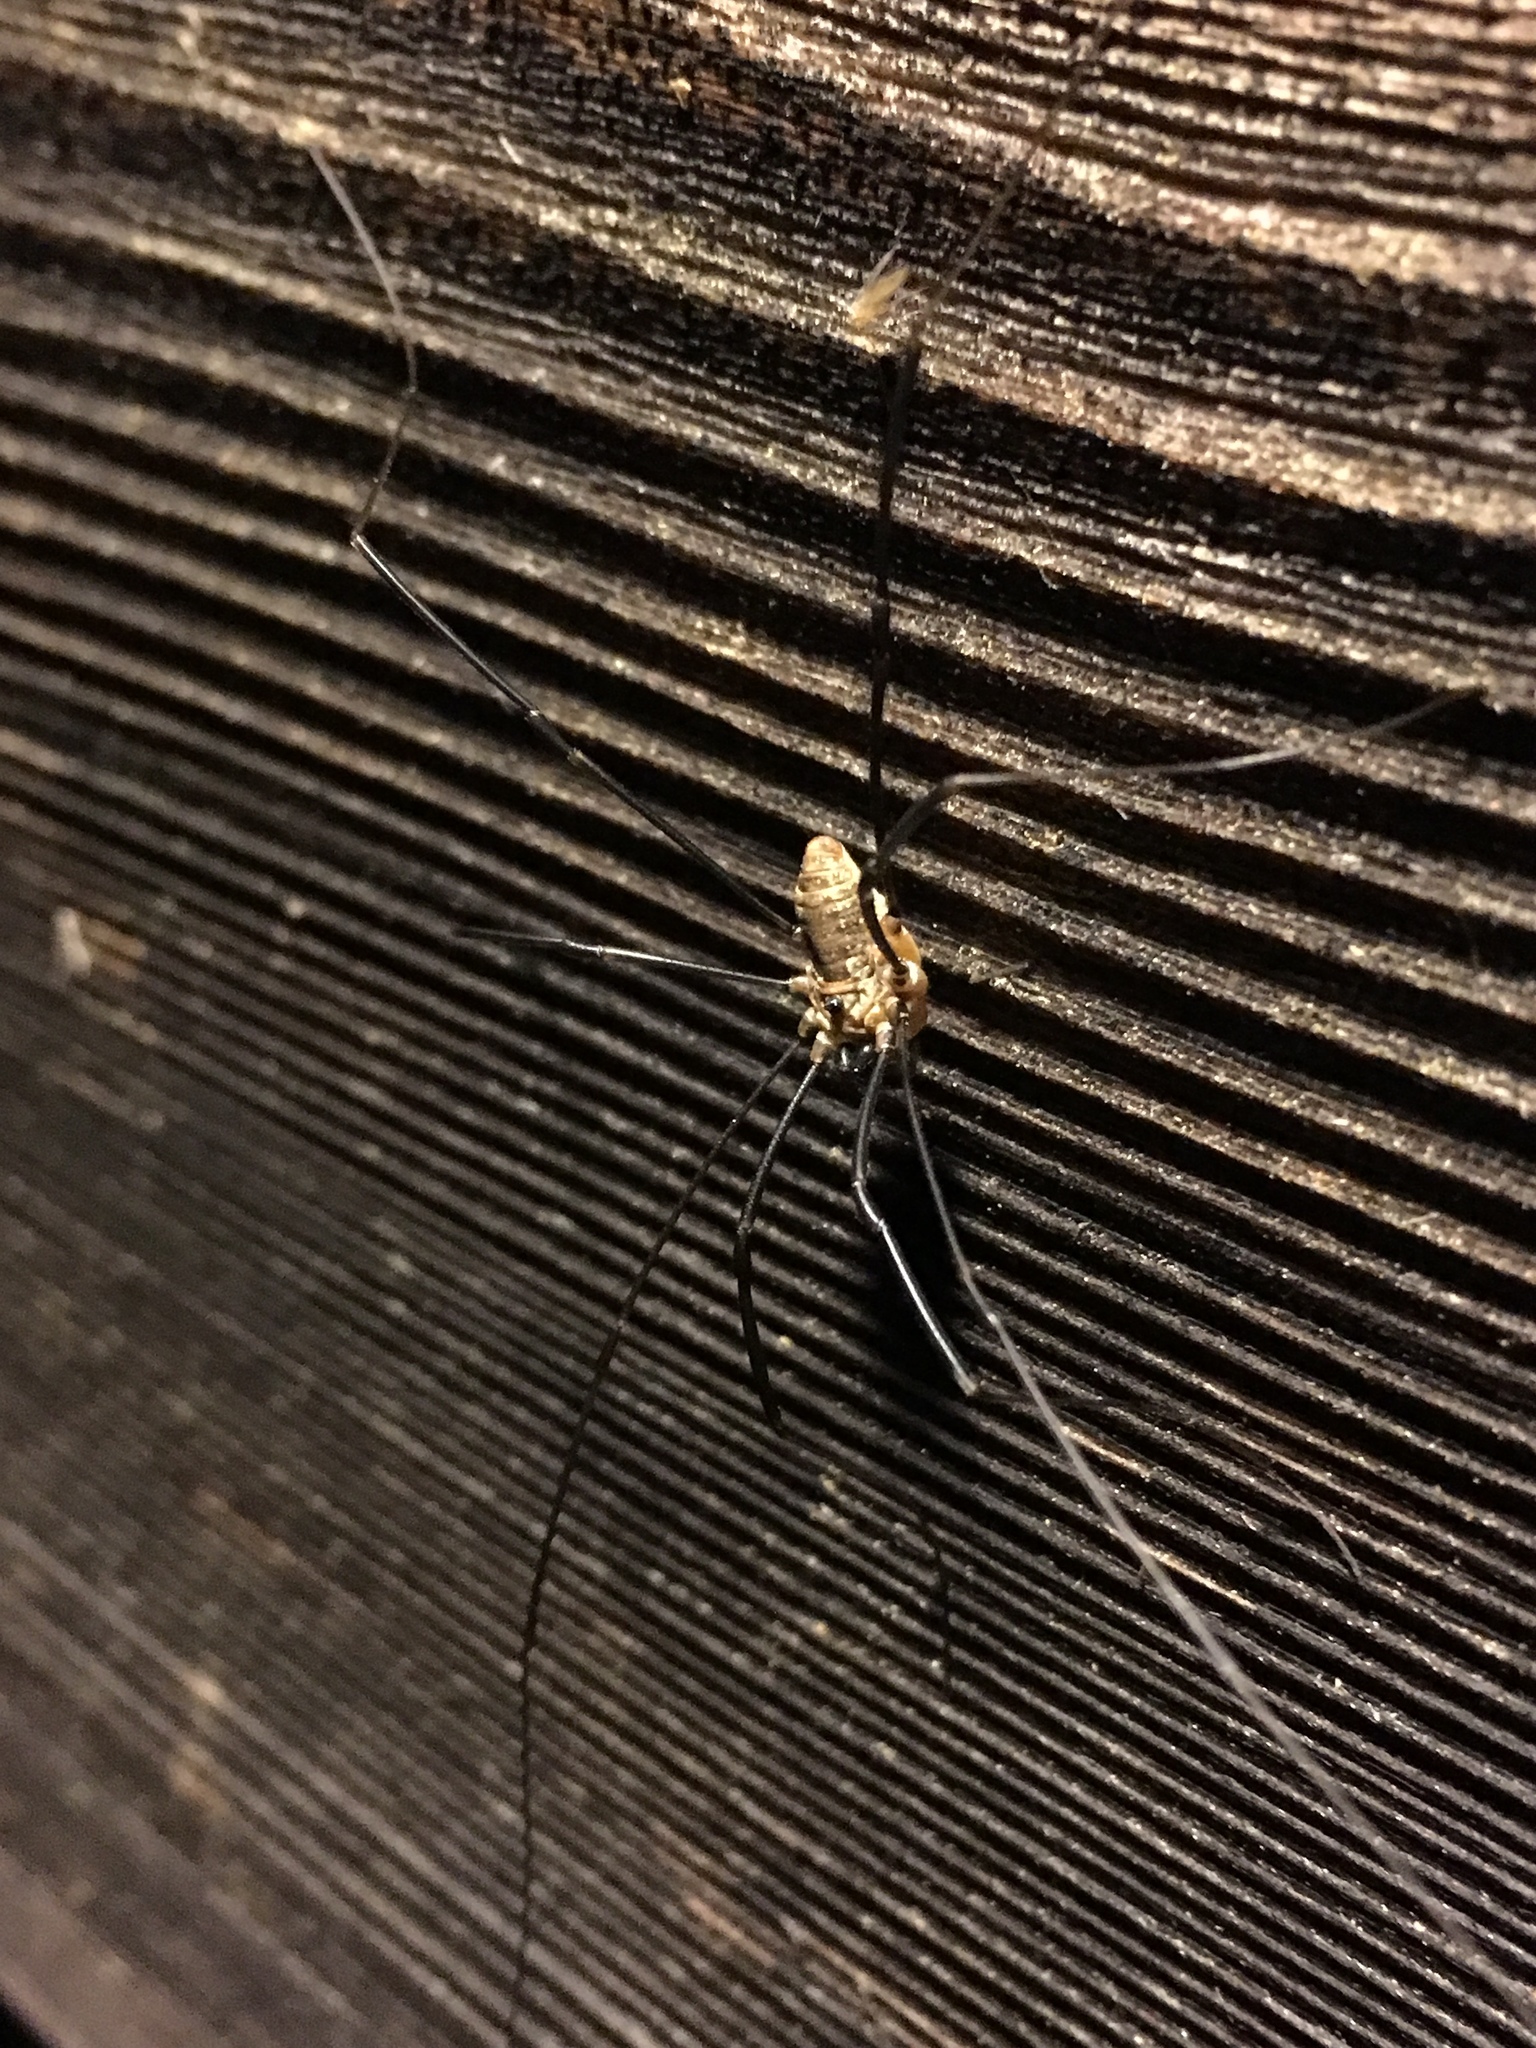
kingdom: Animalia
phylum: Arthropoda
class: Arachnida
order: Opiliones
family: Sclerosomatidae
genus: Leiobunum
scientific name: Leiobunum calcar
